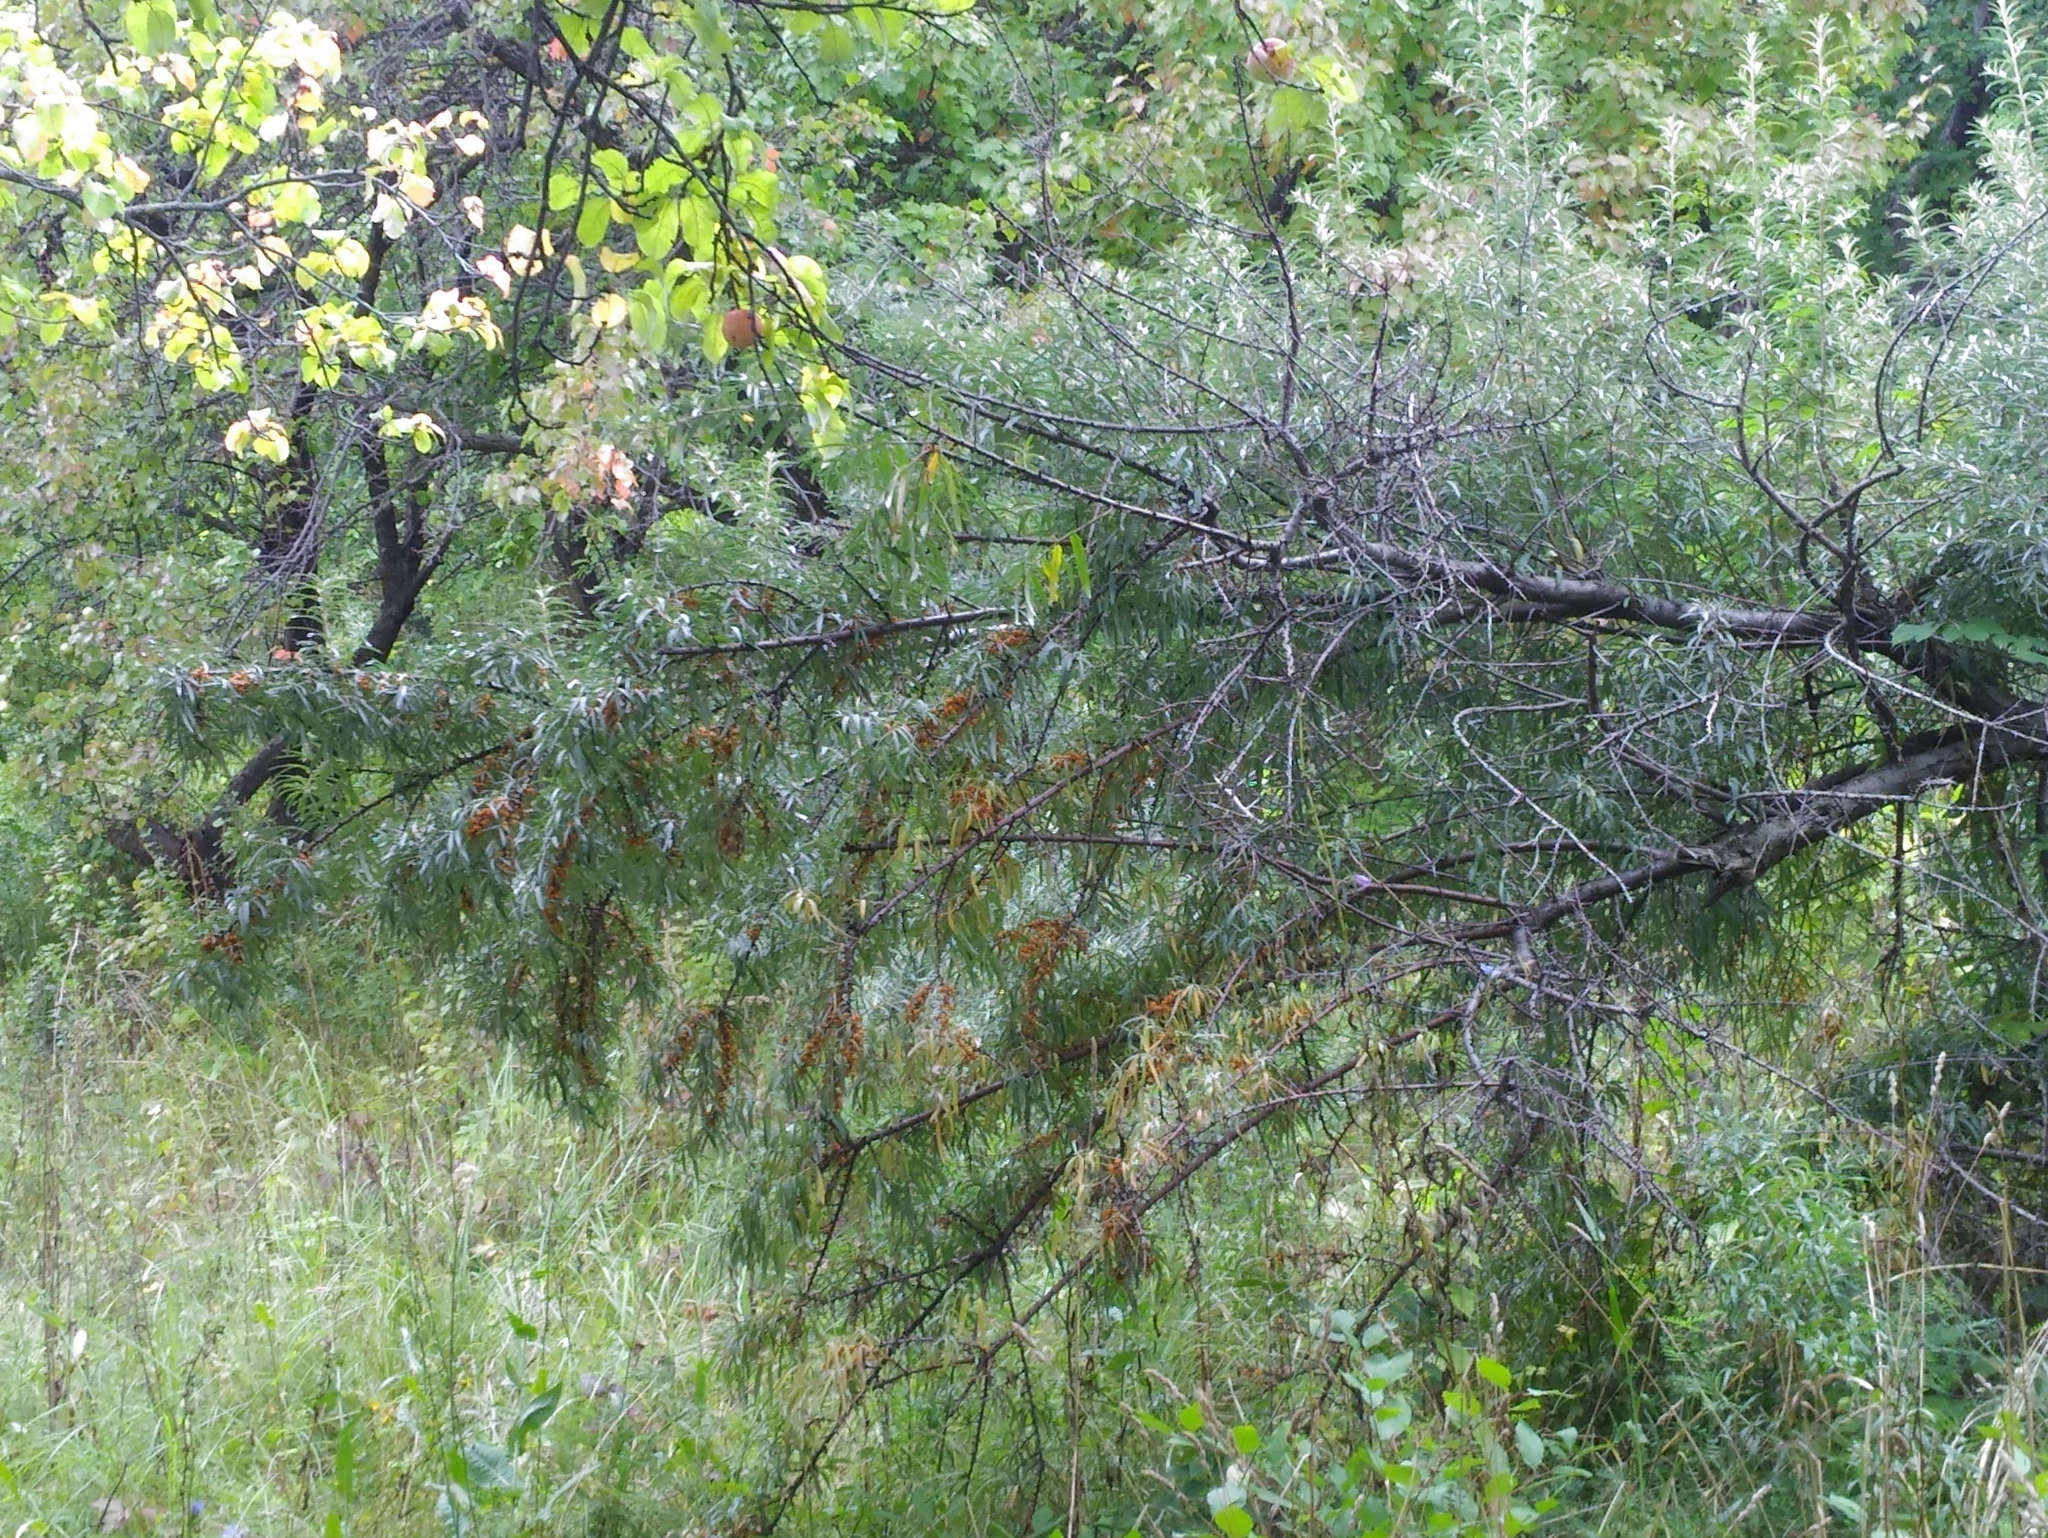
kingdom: Plantae
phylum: Tracheophyta
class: Magnoliopsida
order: Rosales
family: Elaeagnaceae
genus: Hippophae
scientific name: Hippophae rhamnoides
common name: Sea-buckthorn
